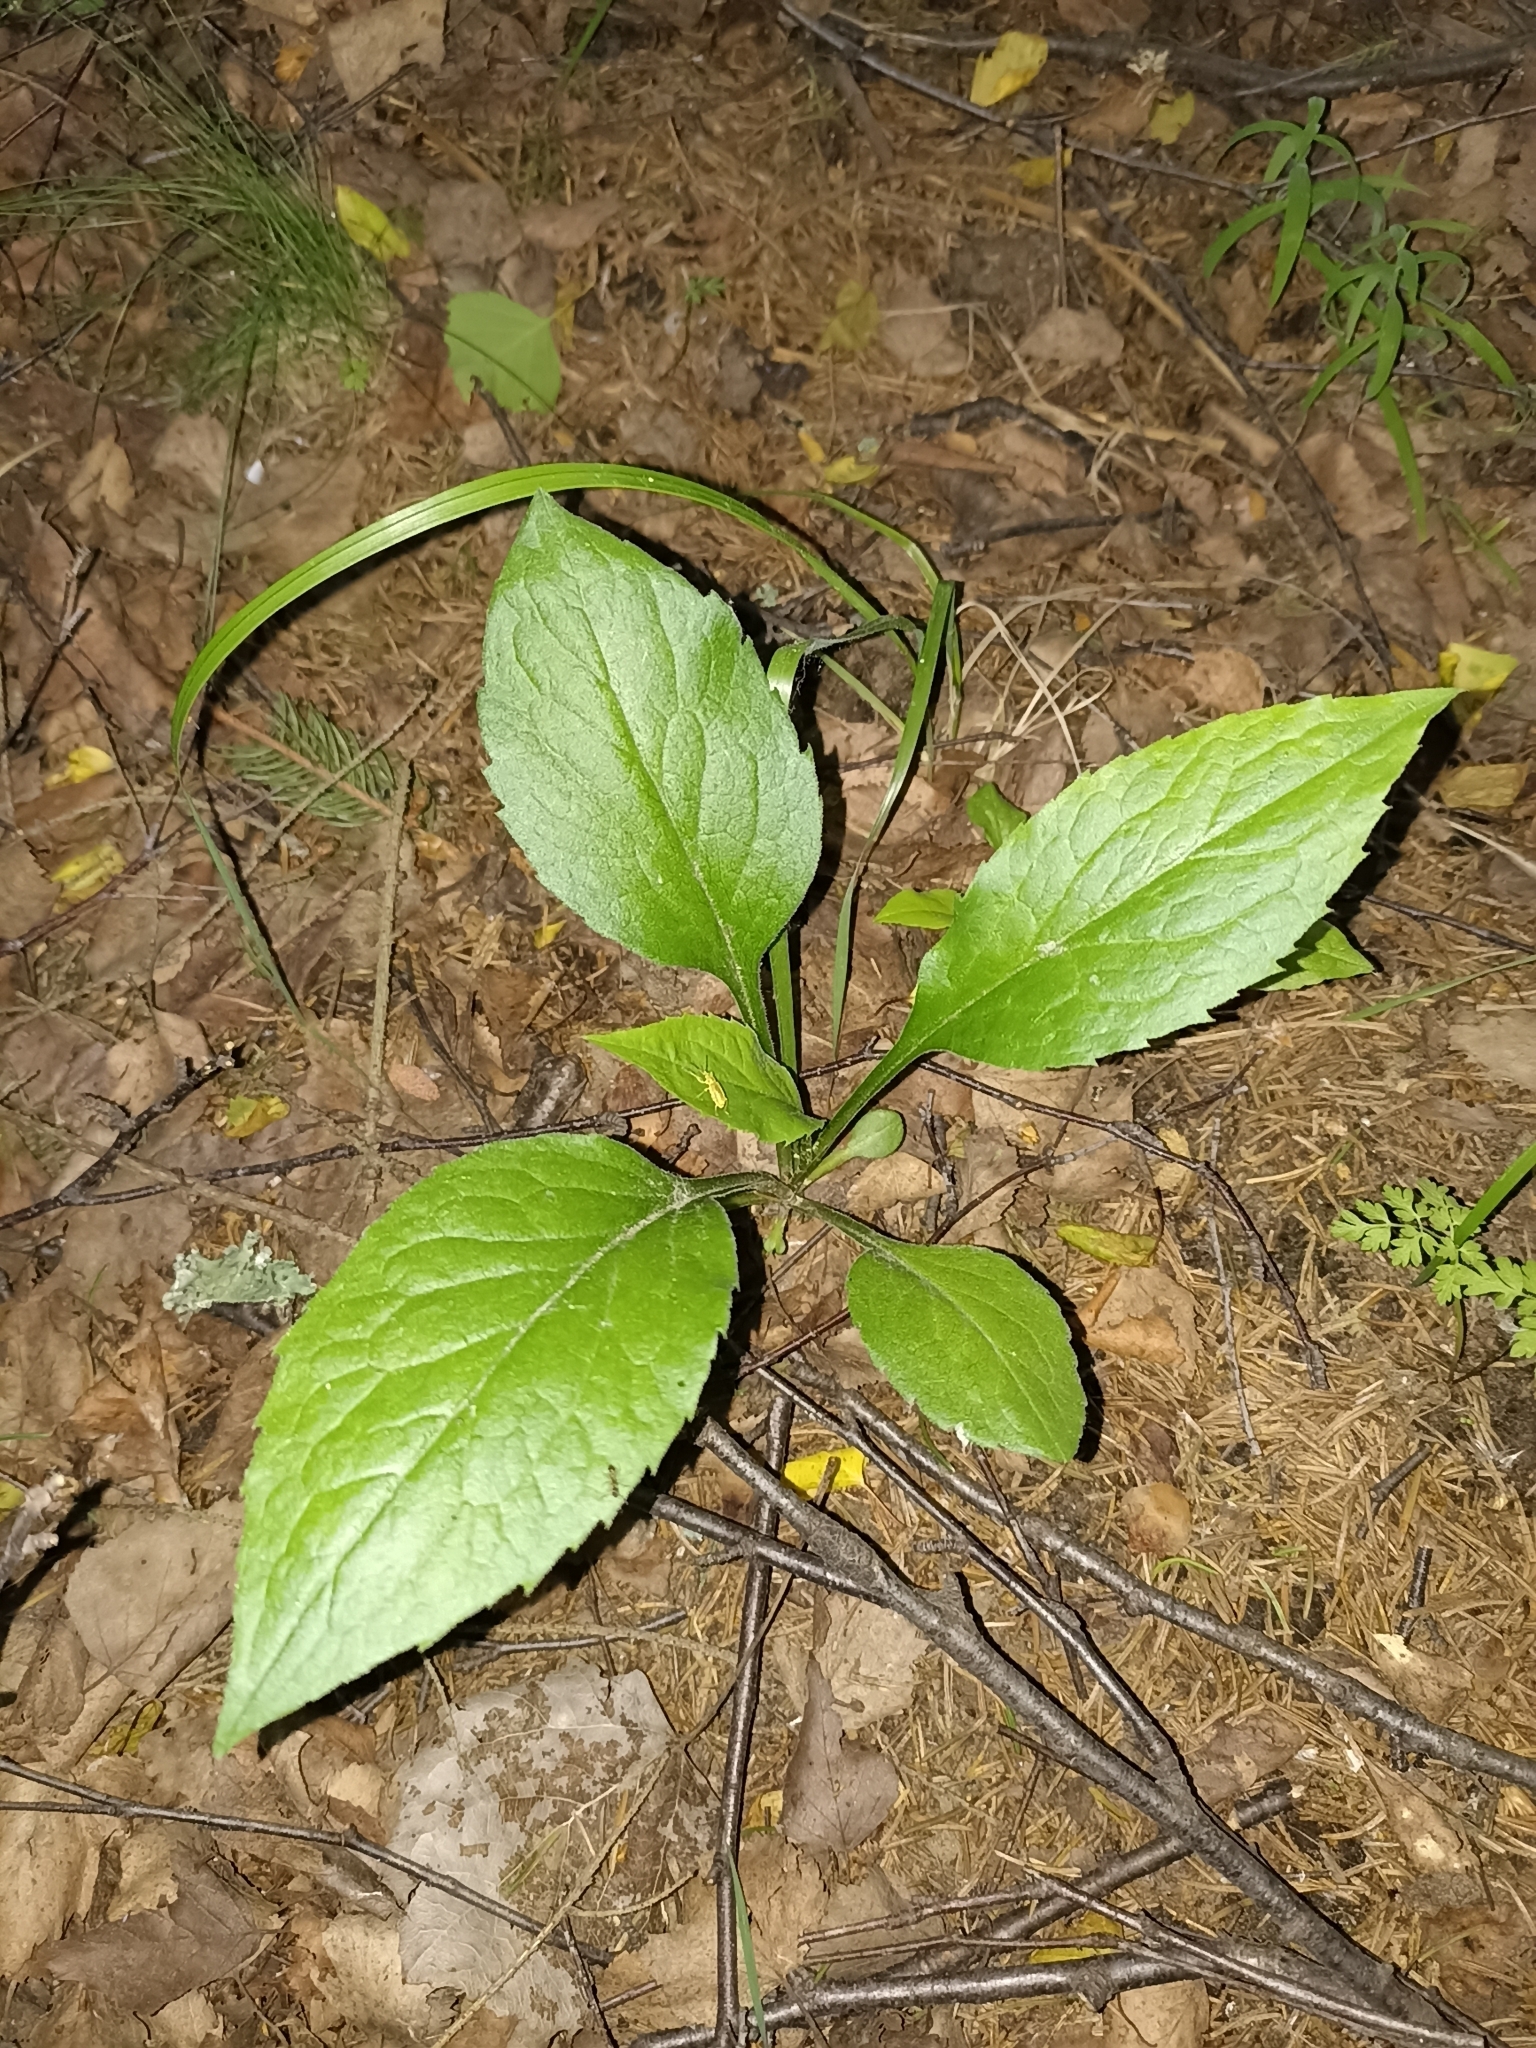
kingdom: Plantae
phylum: Tracheophyta
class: Magnoliopsida
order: Asterales
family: Asteraceae
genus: Solidago
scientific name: Solidago virgaurea
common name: Goldenrod
